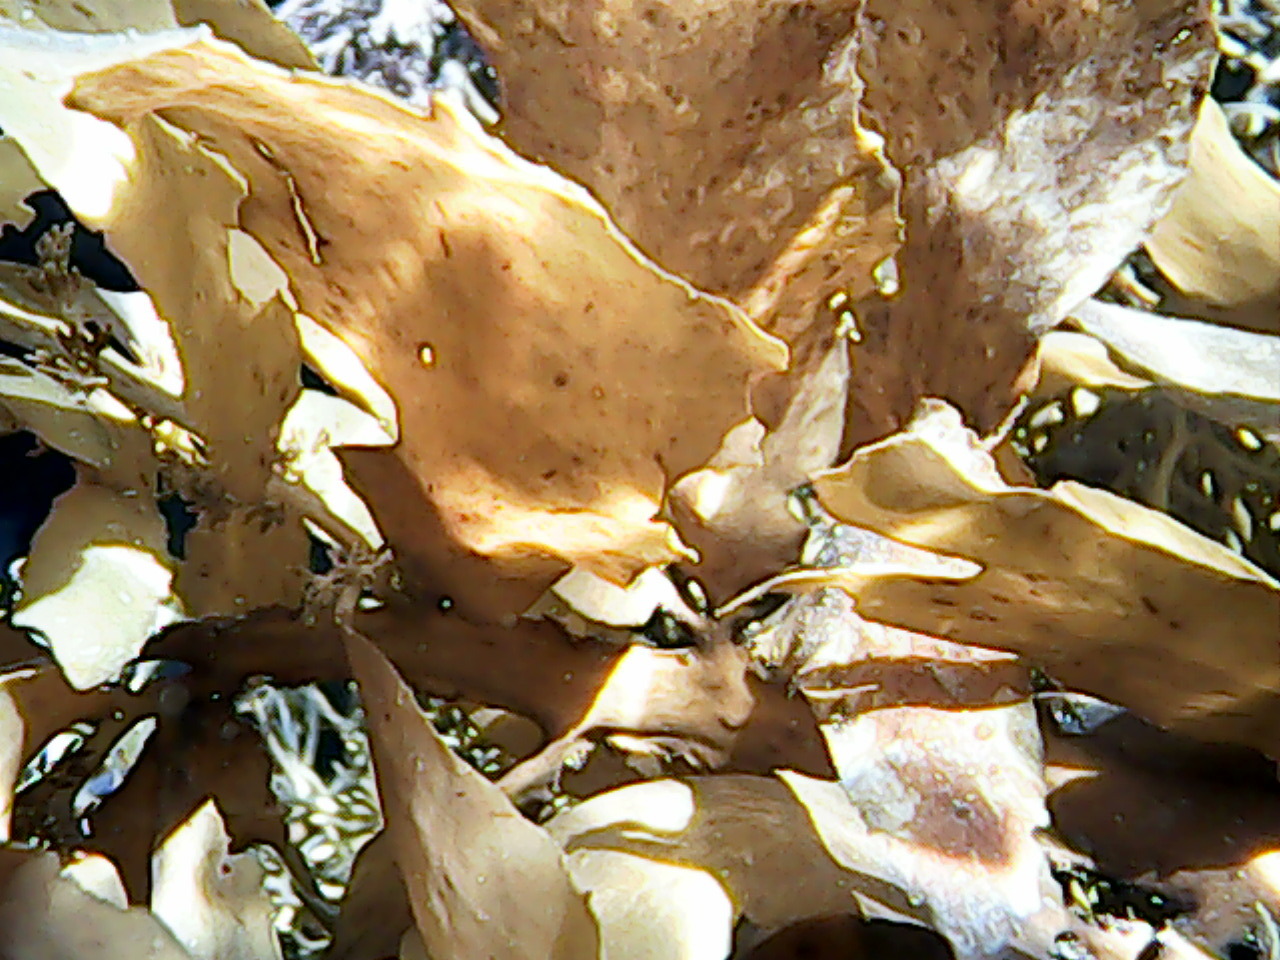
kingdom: Chromista
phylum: Ochrophyta
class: Phaeophyceae
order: Fucales
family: Sargassaceae
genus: Carpophyllum
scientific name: Carpophyllum flexuosum
